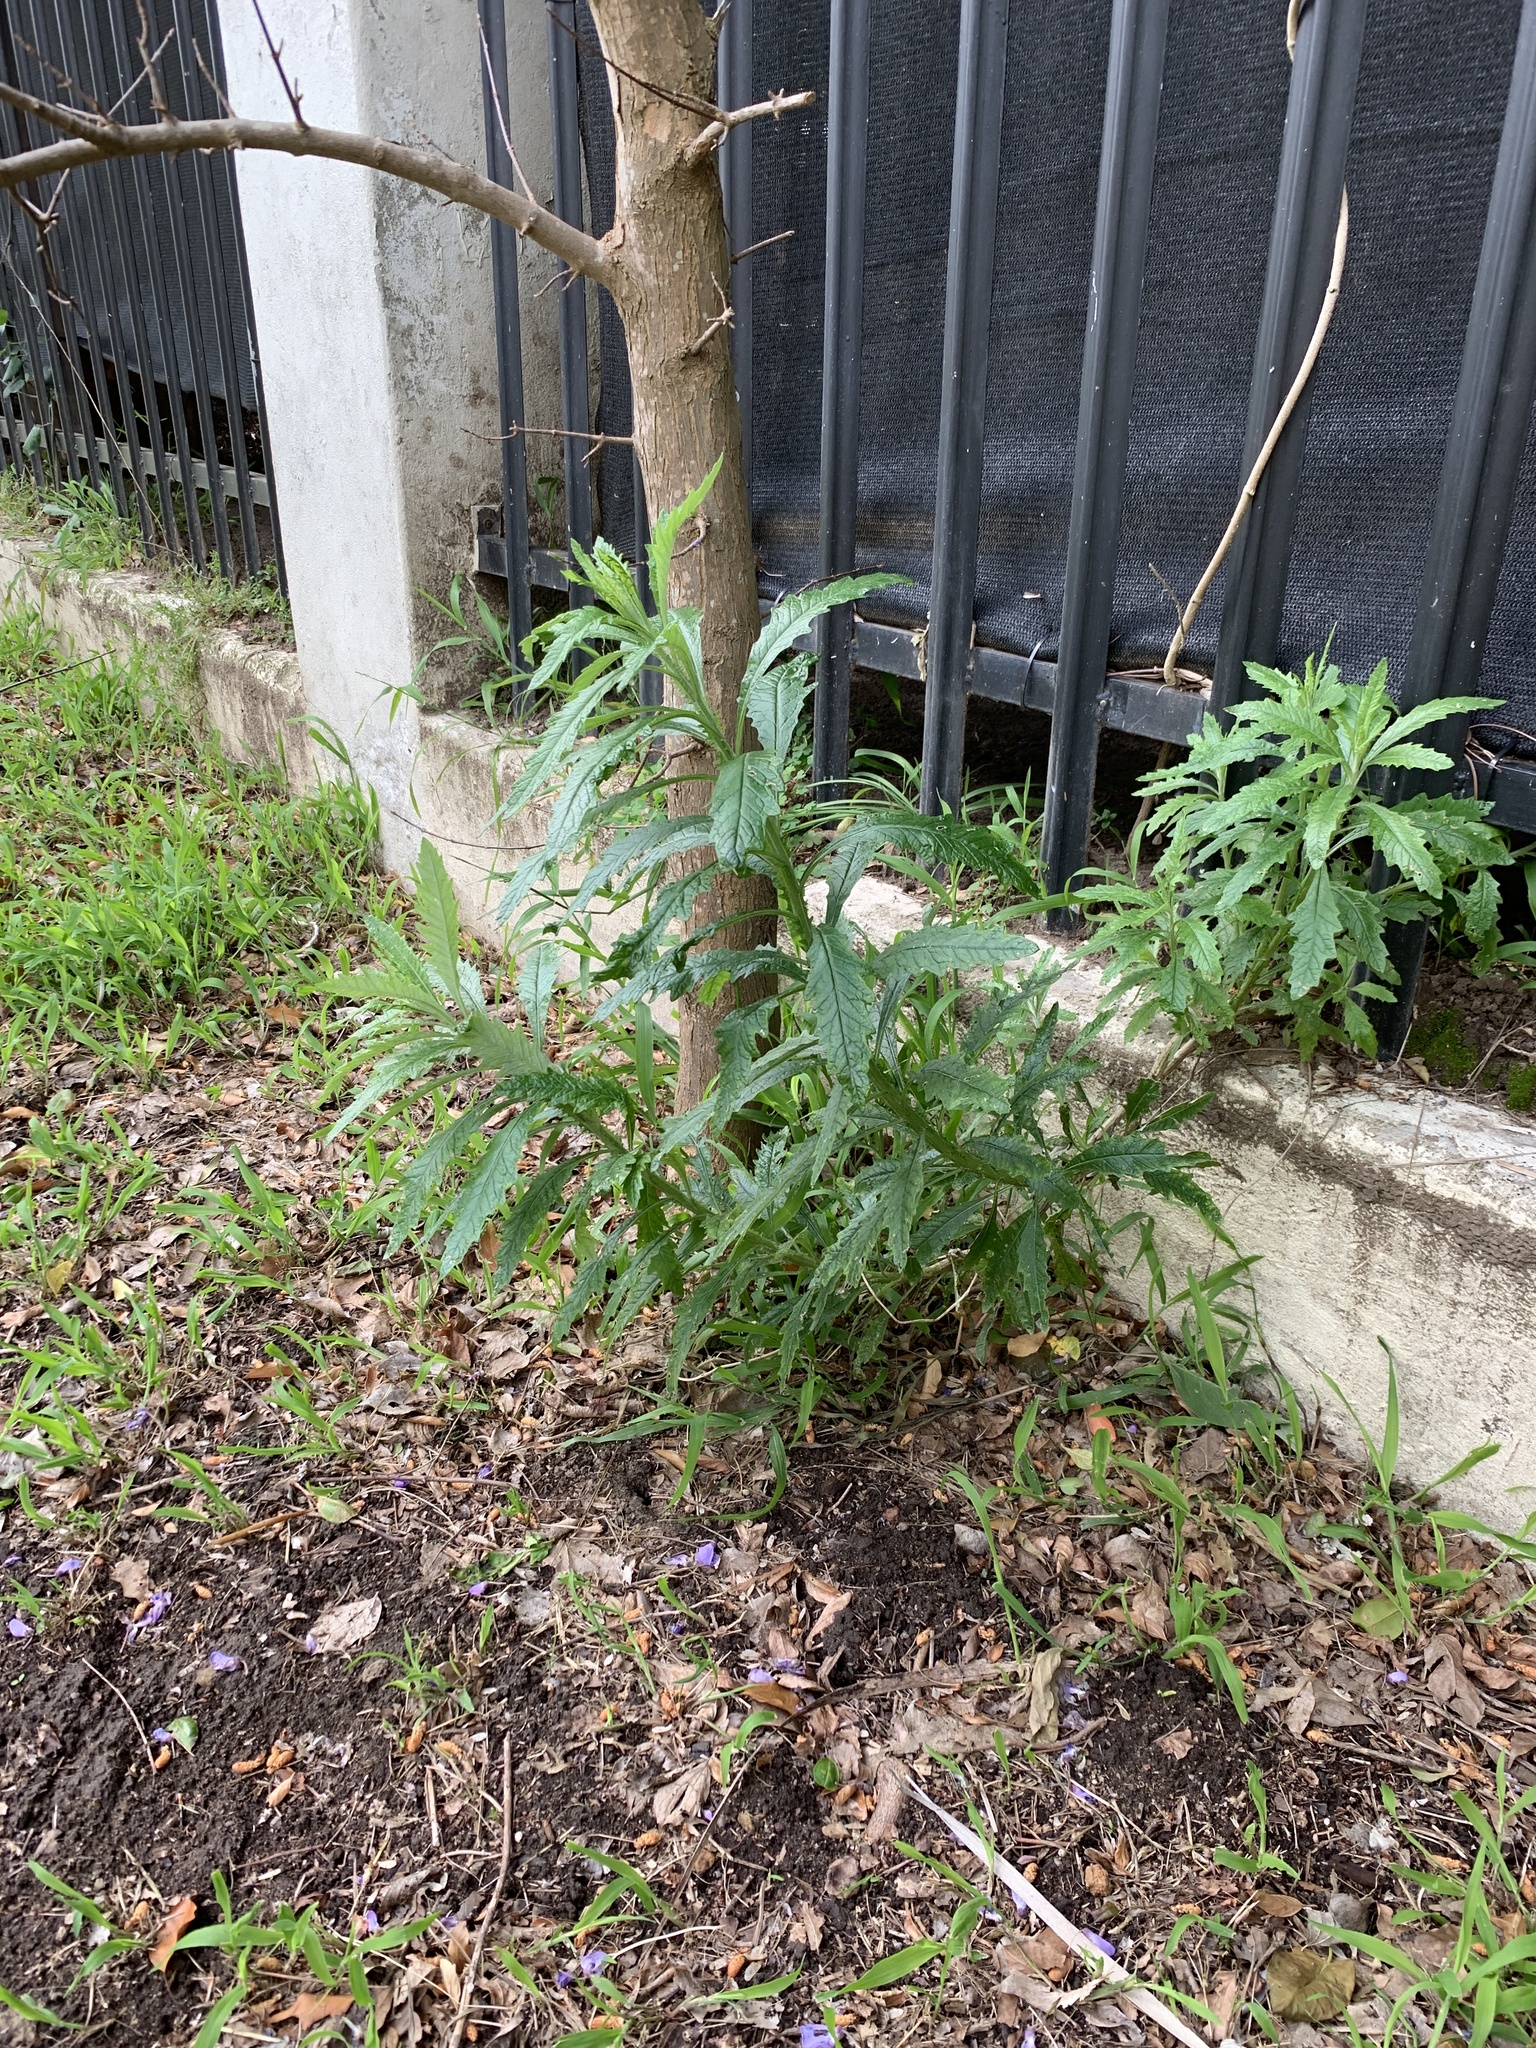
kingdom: Plantae
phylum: Tracheophyta
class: Magnoliopsida
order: Asterales
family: Asteraceae
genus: Senecio
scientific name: Senecio pterophorus
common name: Shoddy ragwort
